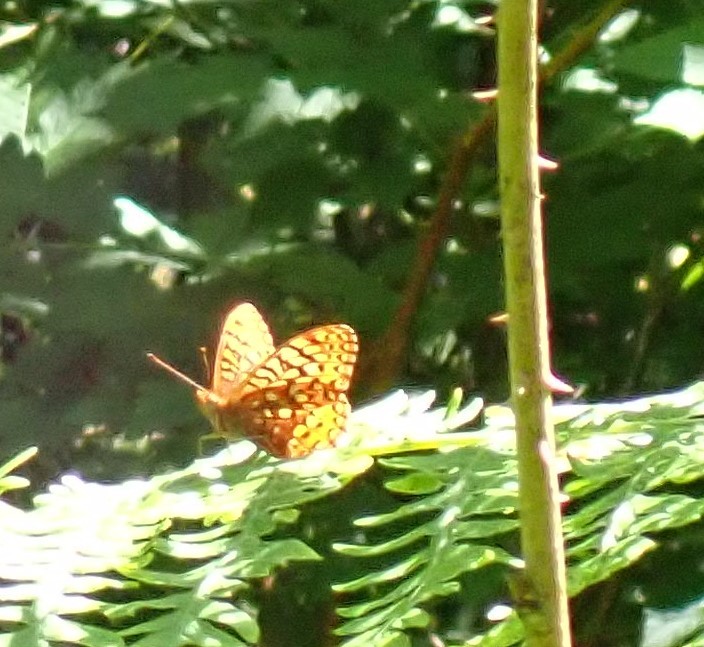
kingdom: Animalia
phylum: Arthropoda
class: Insecta
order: Lepidoptera
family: Nymphalidae
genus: Speyeria
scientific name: Speyeria hydaspe
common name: Hydaspe fritillary
